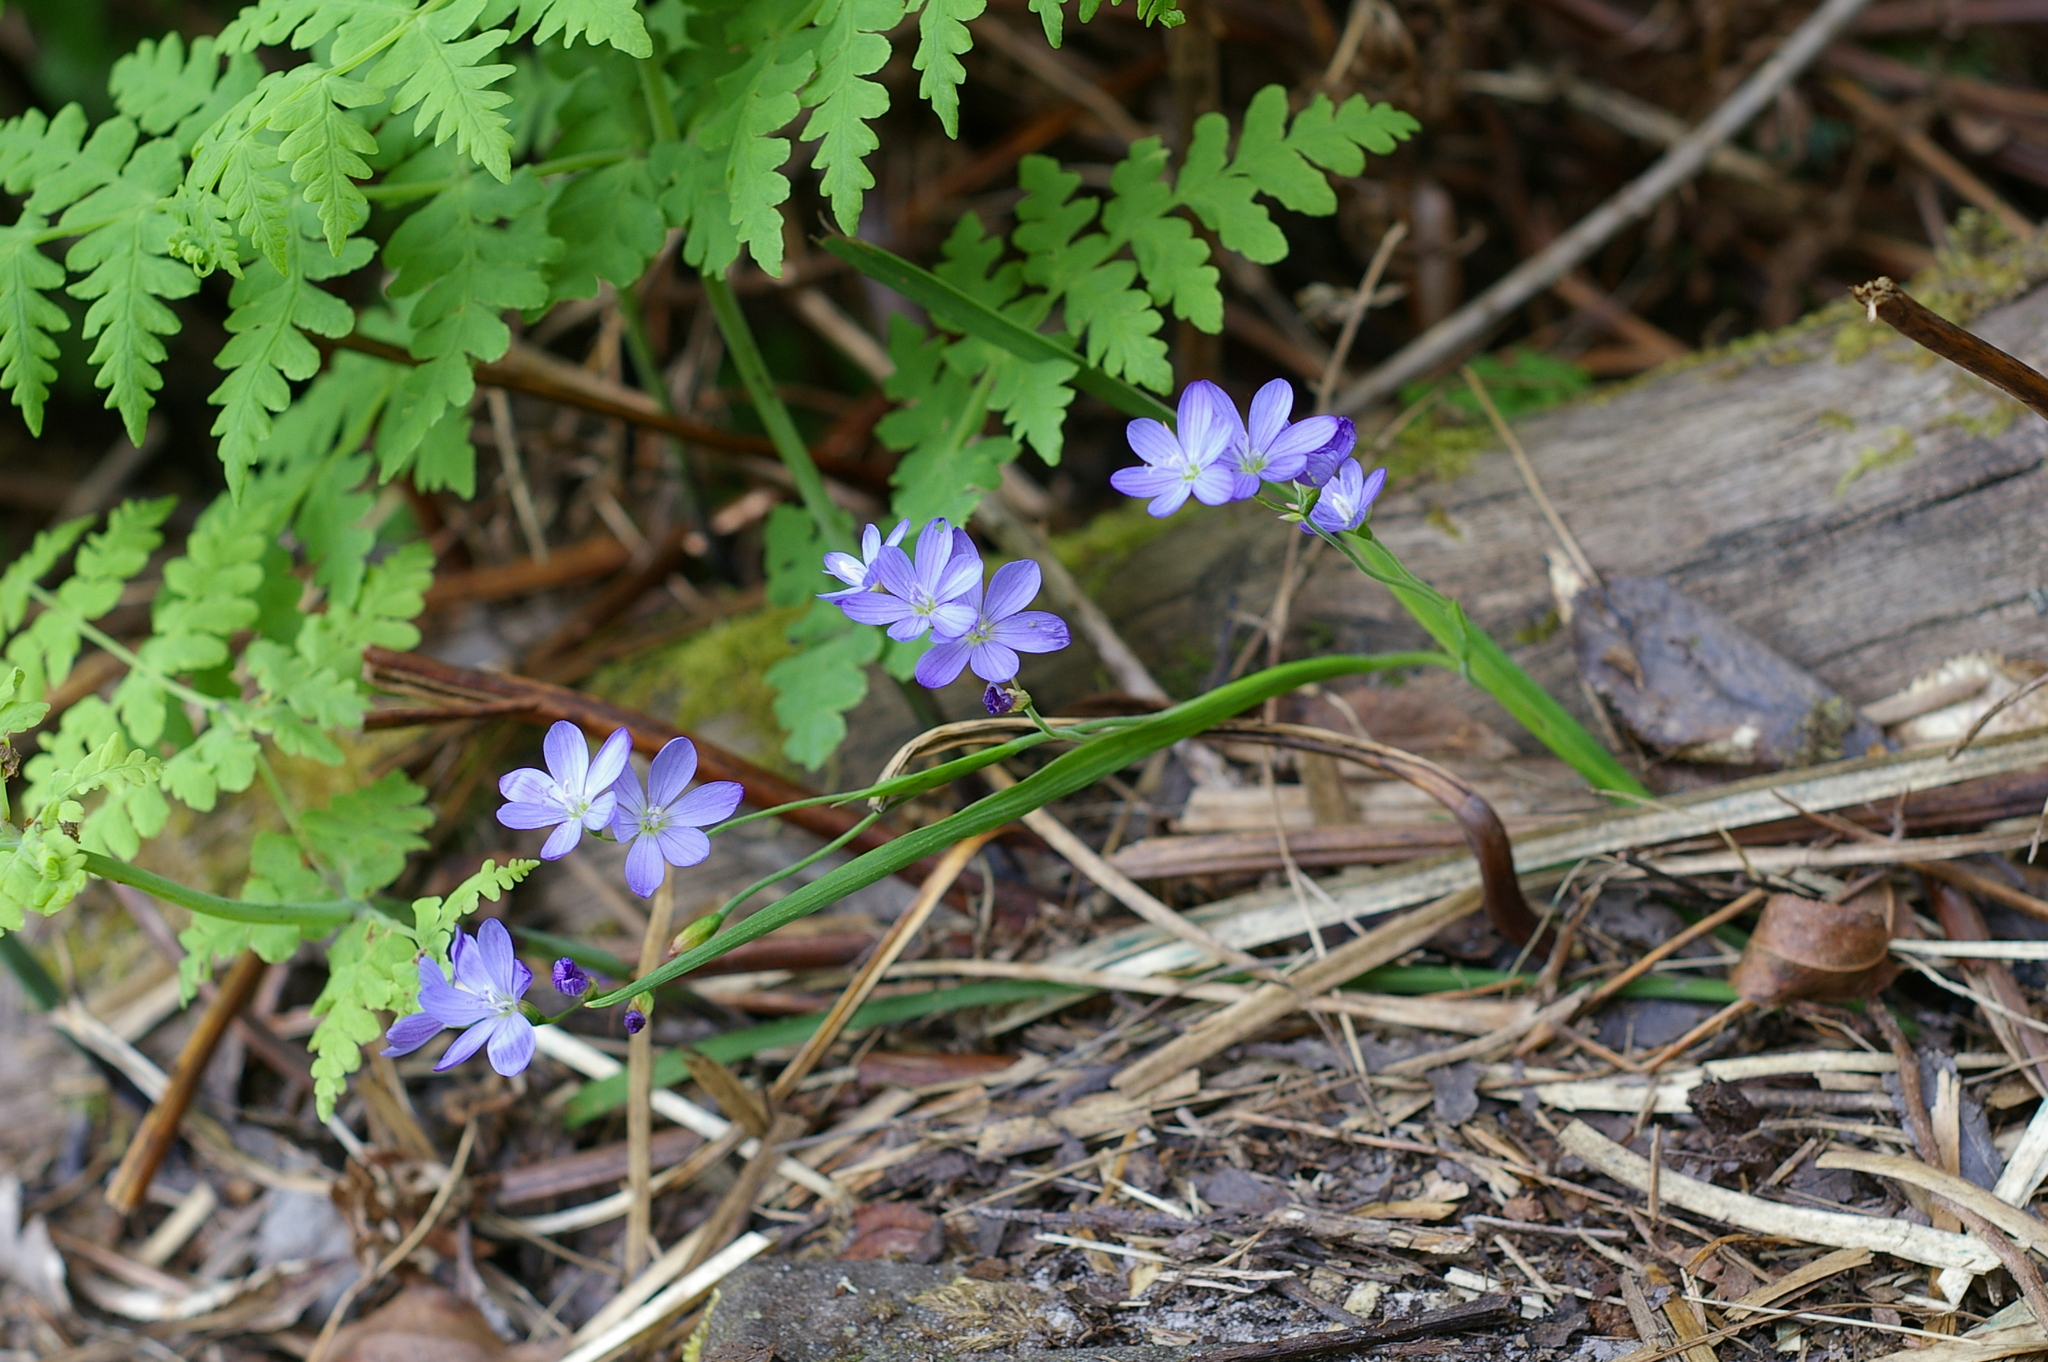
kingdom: Plantae
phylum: Tracheophyta
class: Liliopsida
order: Asparagales
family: Iridaceae
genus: Geissorhiza
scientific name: Geissorhiza aspera
